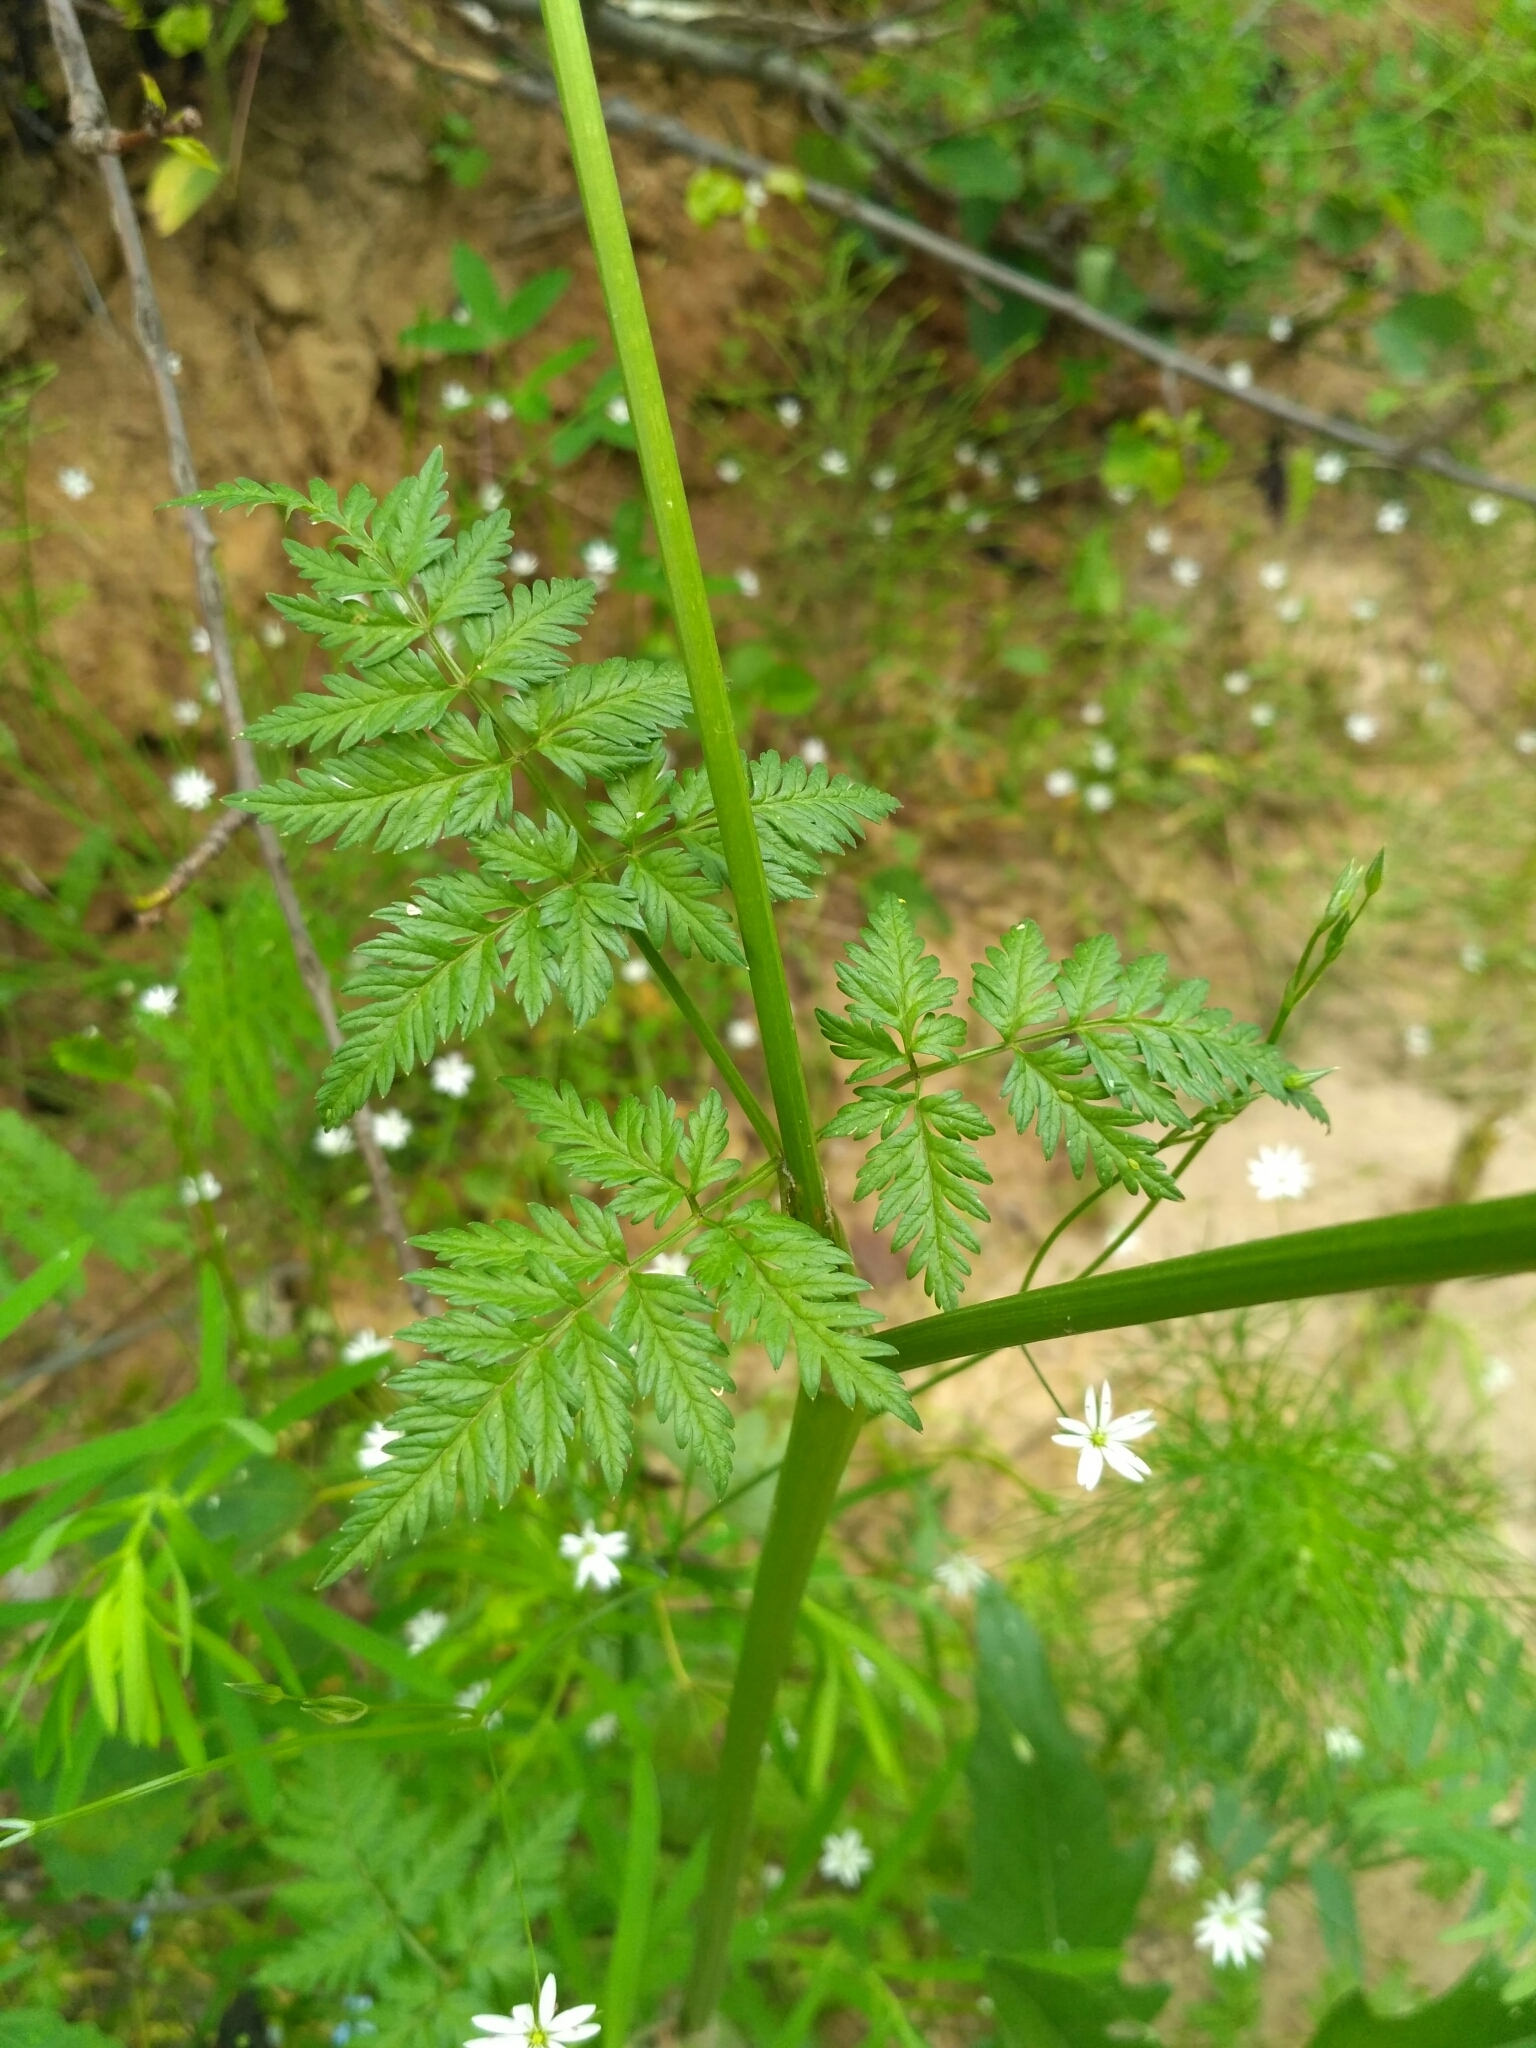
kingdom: Plantae
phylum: Tracheophyta
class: Magnoliopsida
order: Apiales
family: Apiaceae
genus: Anthriscus
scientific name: Anthriscus sylvestris
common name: Cow parsley
